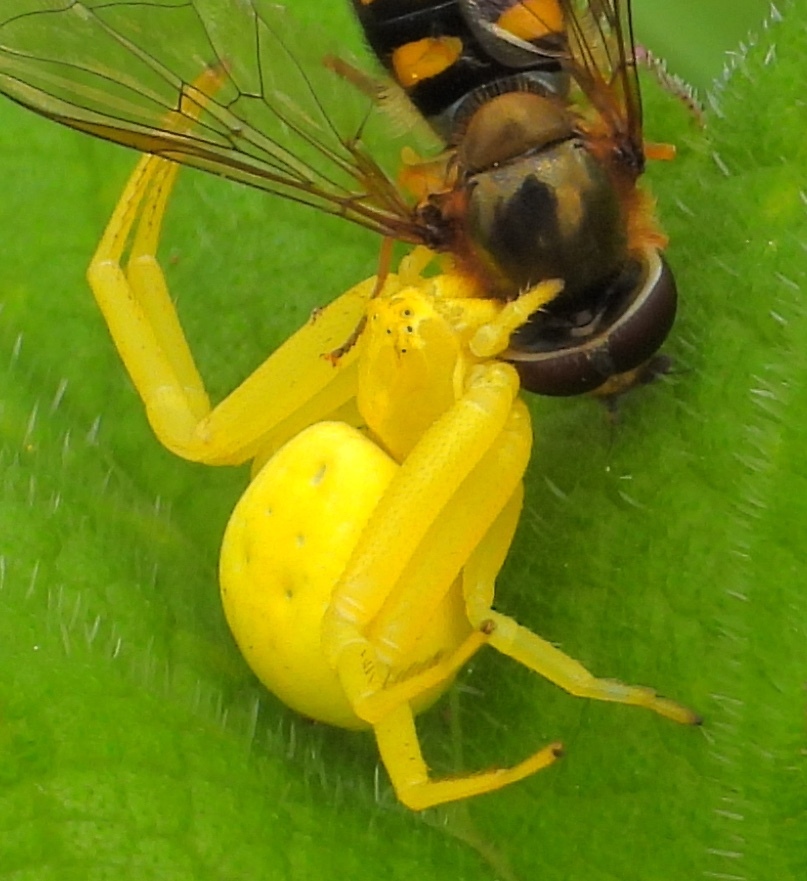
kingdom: Animalia
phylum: Arthropoda
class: Arachnida
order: Araneae
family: Thomisidae
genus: Misumena
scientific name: Misumena vatia
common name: Goldenrod crab spider
